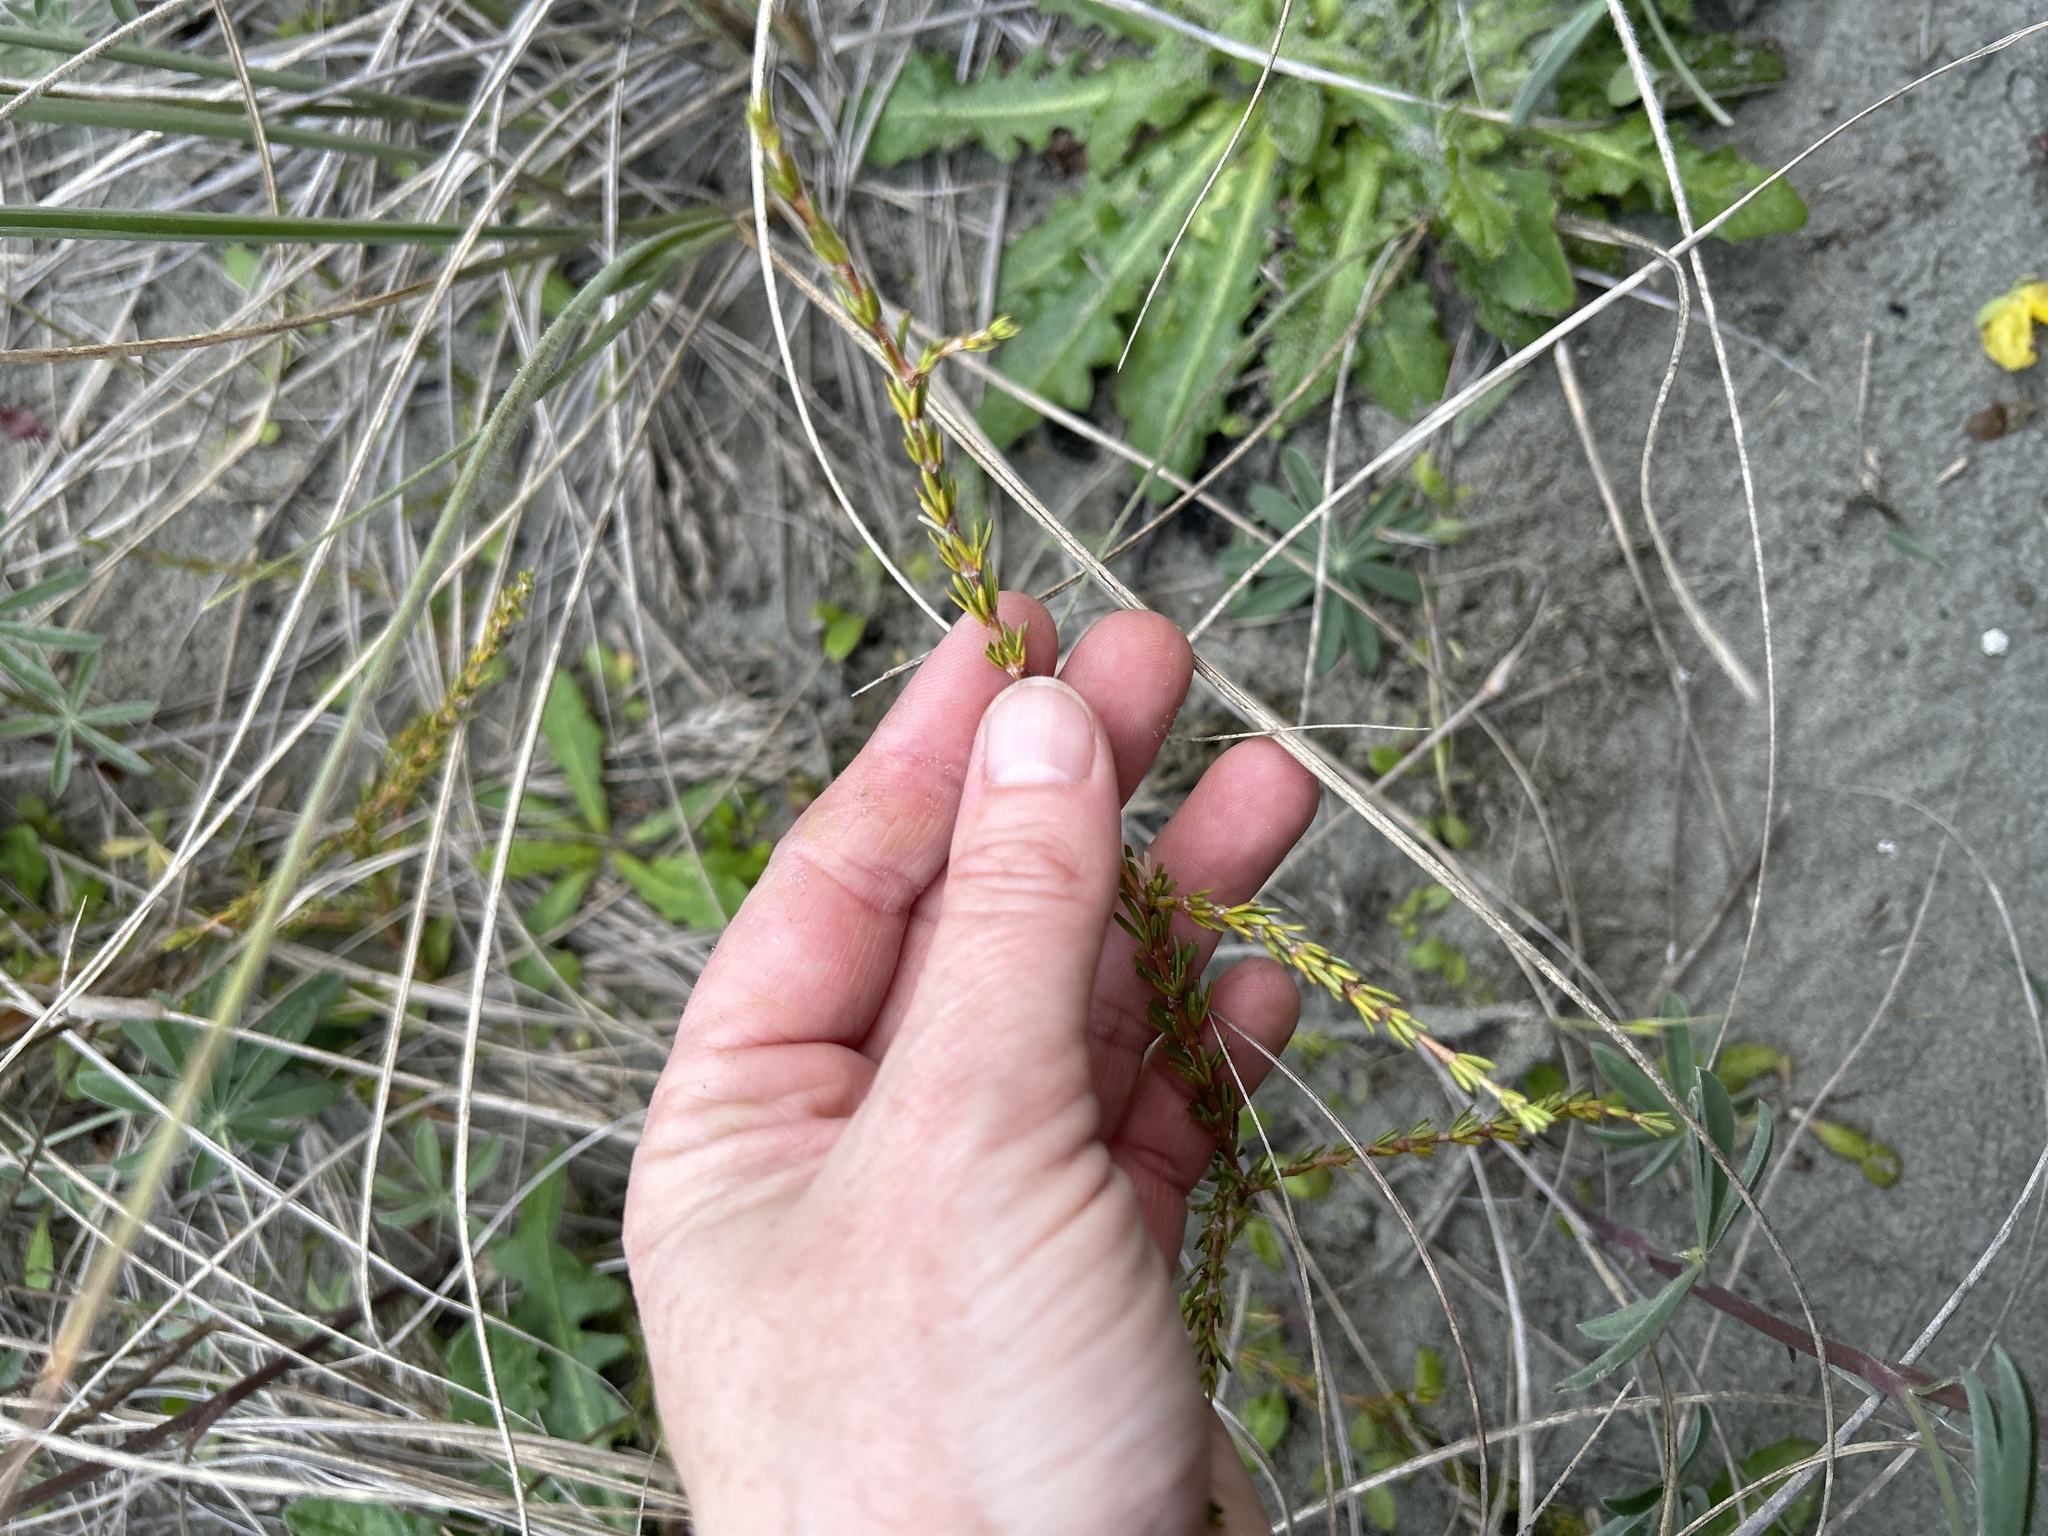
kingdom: Plantae
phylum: Tracheophyta
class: Magnoliopsida
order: Gentianales
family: Rubiaceae
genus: Coprosma
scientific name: Coprosma acerosa
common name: Sand coprosma
